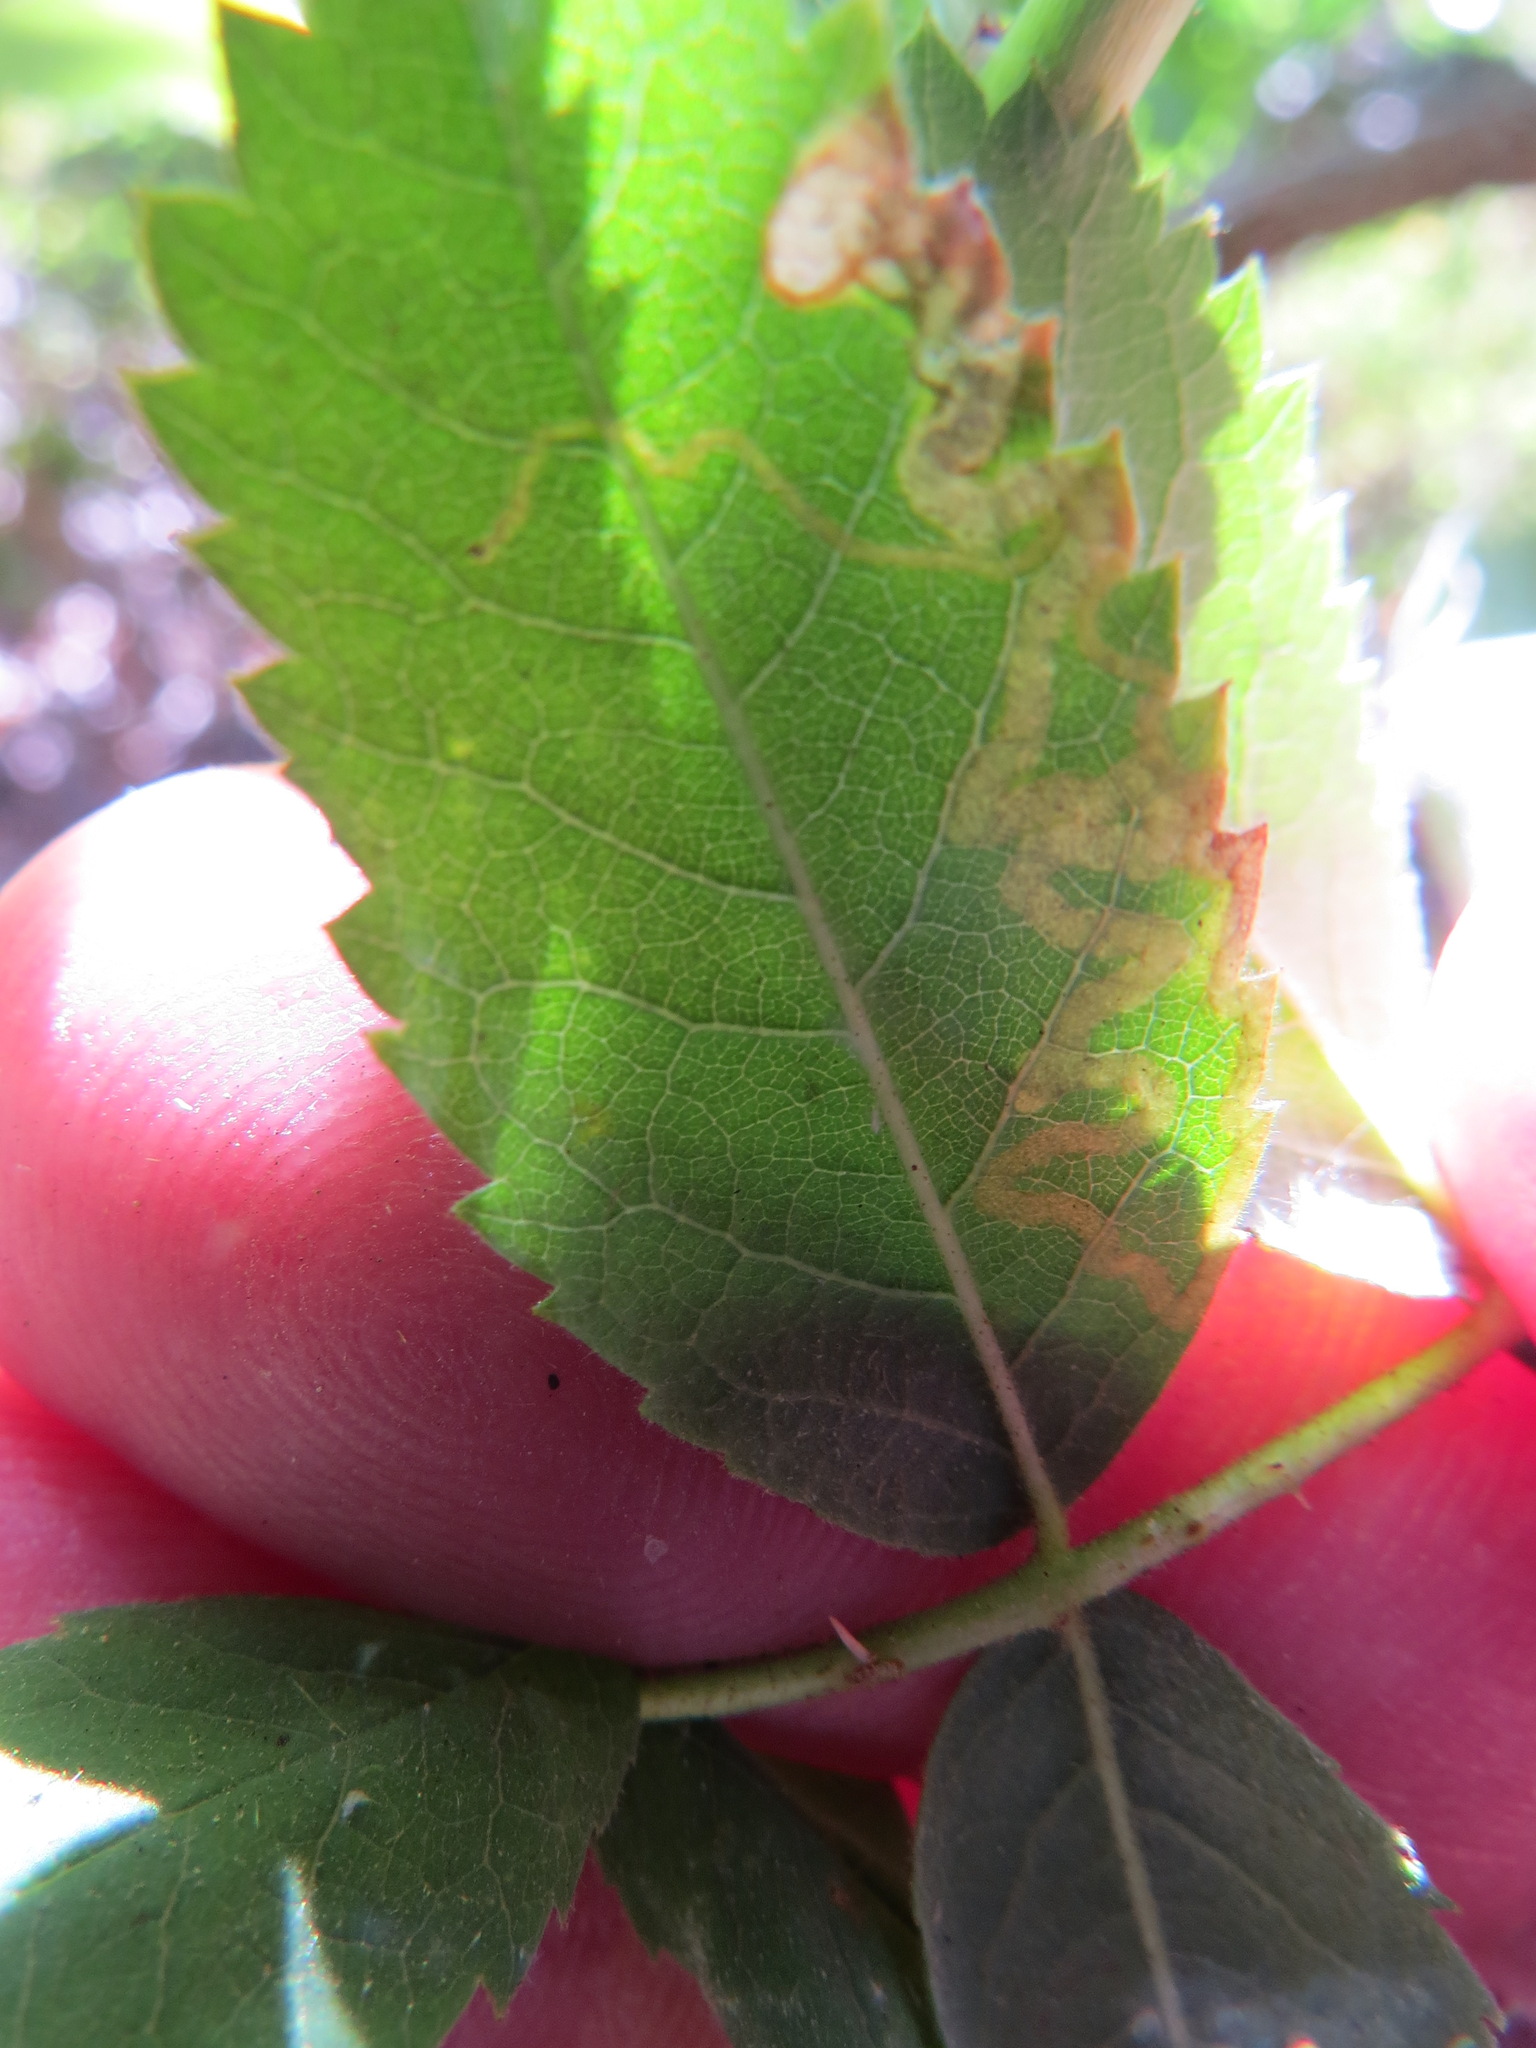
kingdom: Animalia
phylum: Arthropoda
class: Insecta
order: Lepidoptera
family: Nepticulidae
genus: Stigmella
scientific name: Stigmella anomalella
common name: Rose leaf-miner
